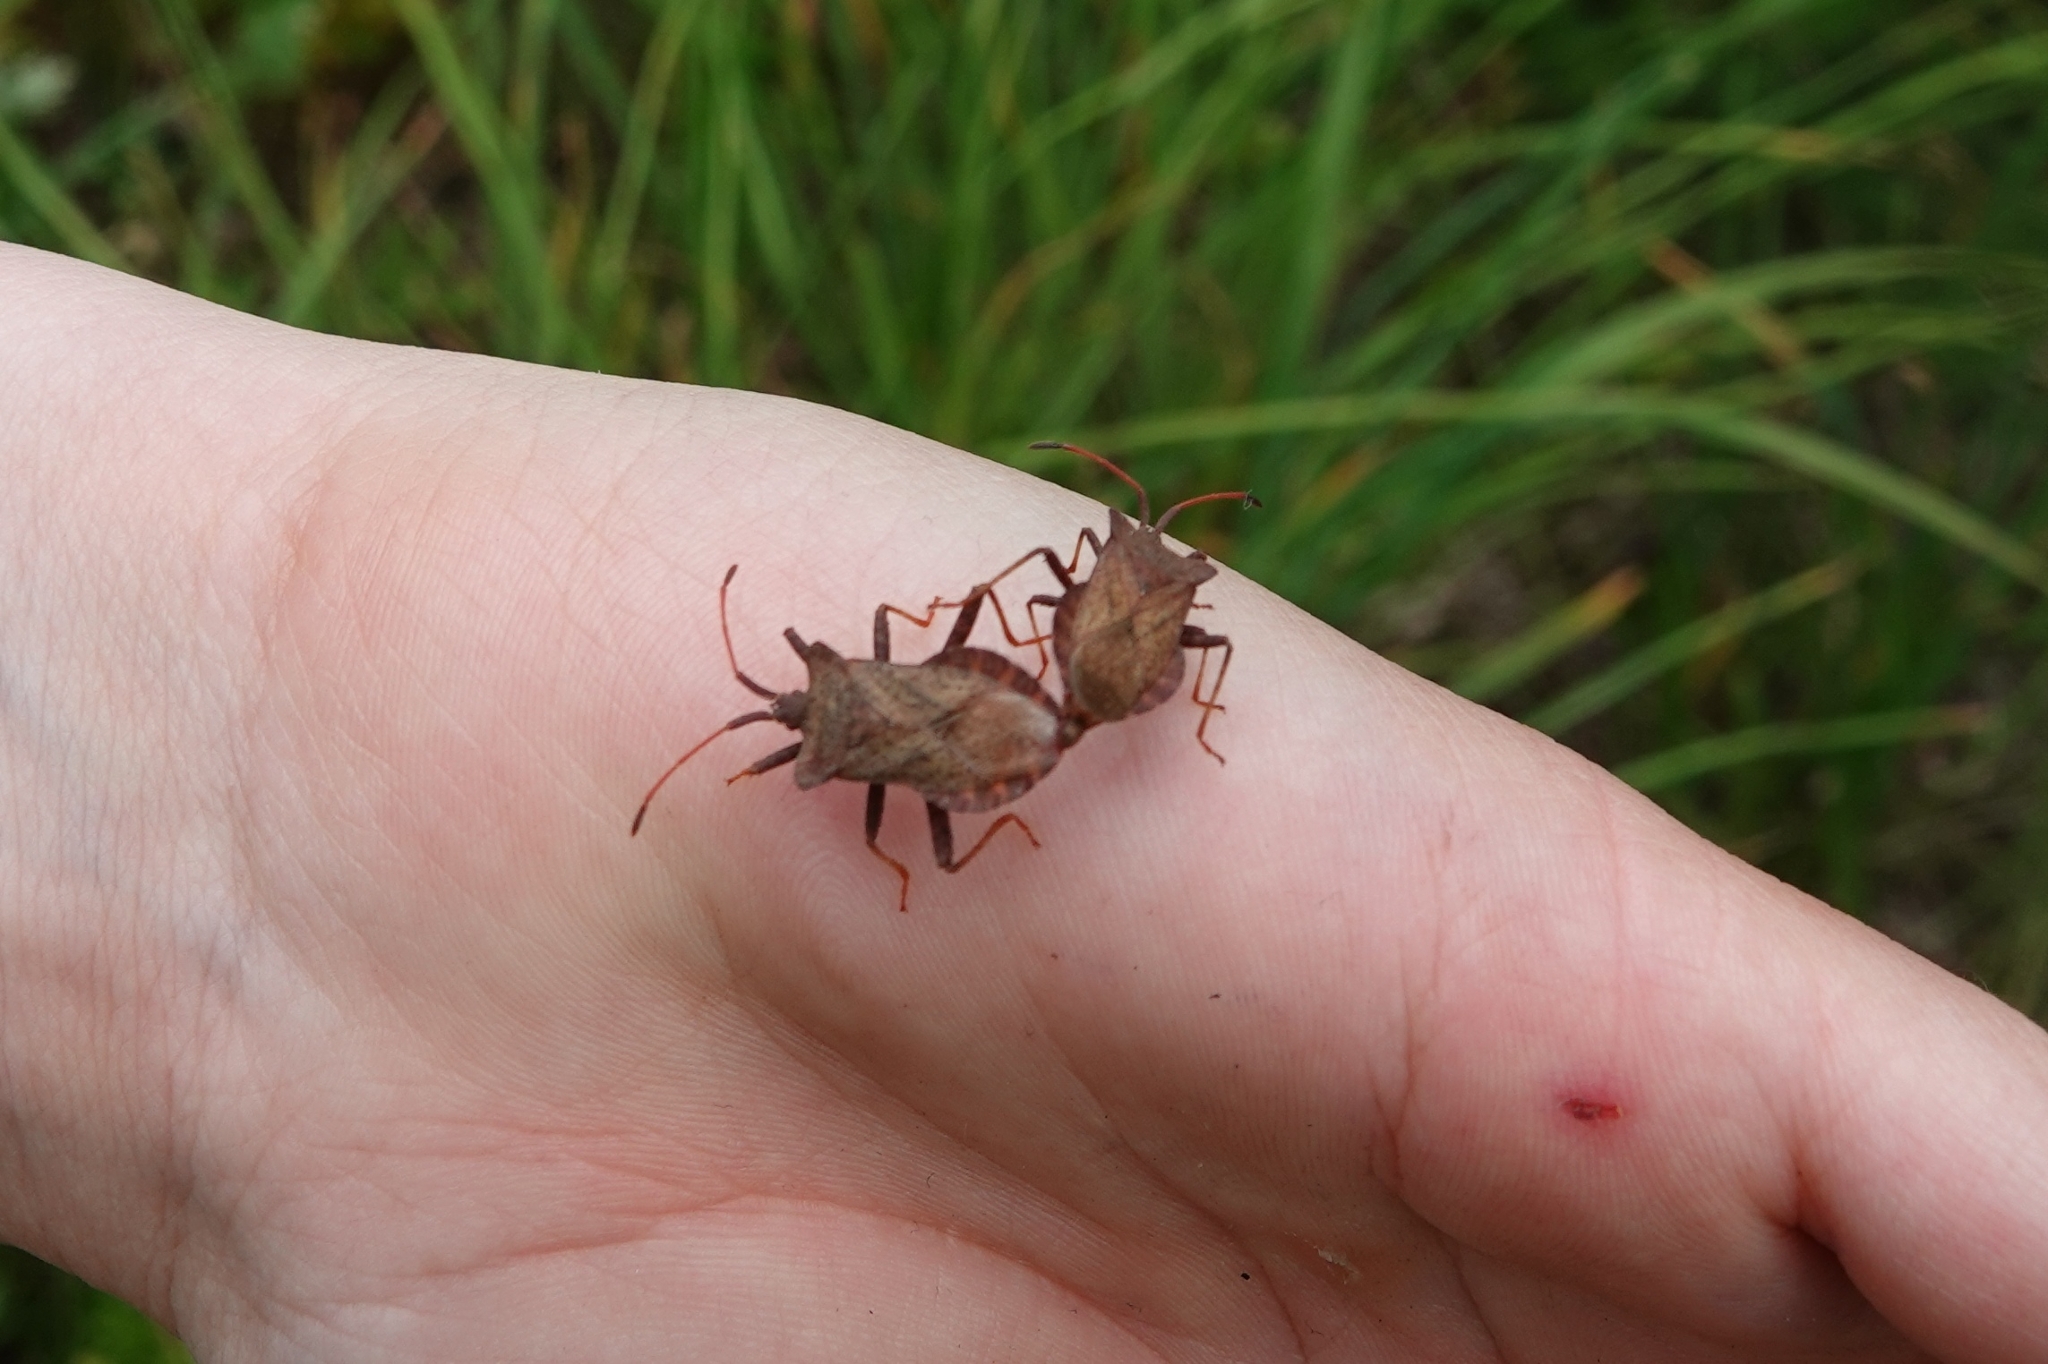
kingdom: Animalia
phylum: Arthropoda
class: Insecta
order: Hemiptera
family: Coreidae
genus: Coreus
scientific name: Coreus marginatus
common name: Dock bug
